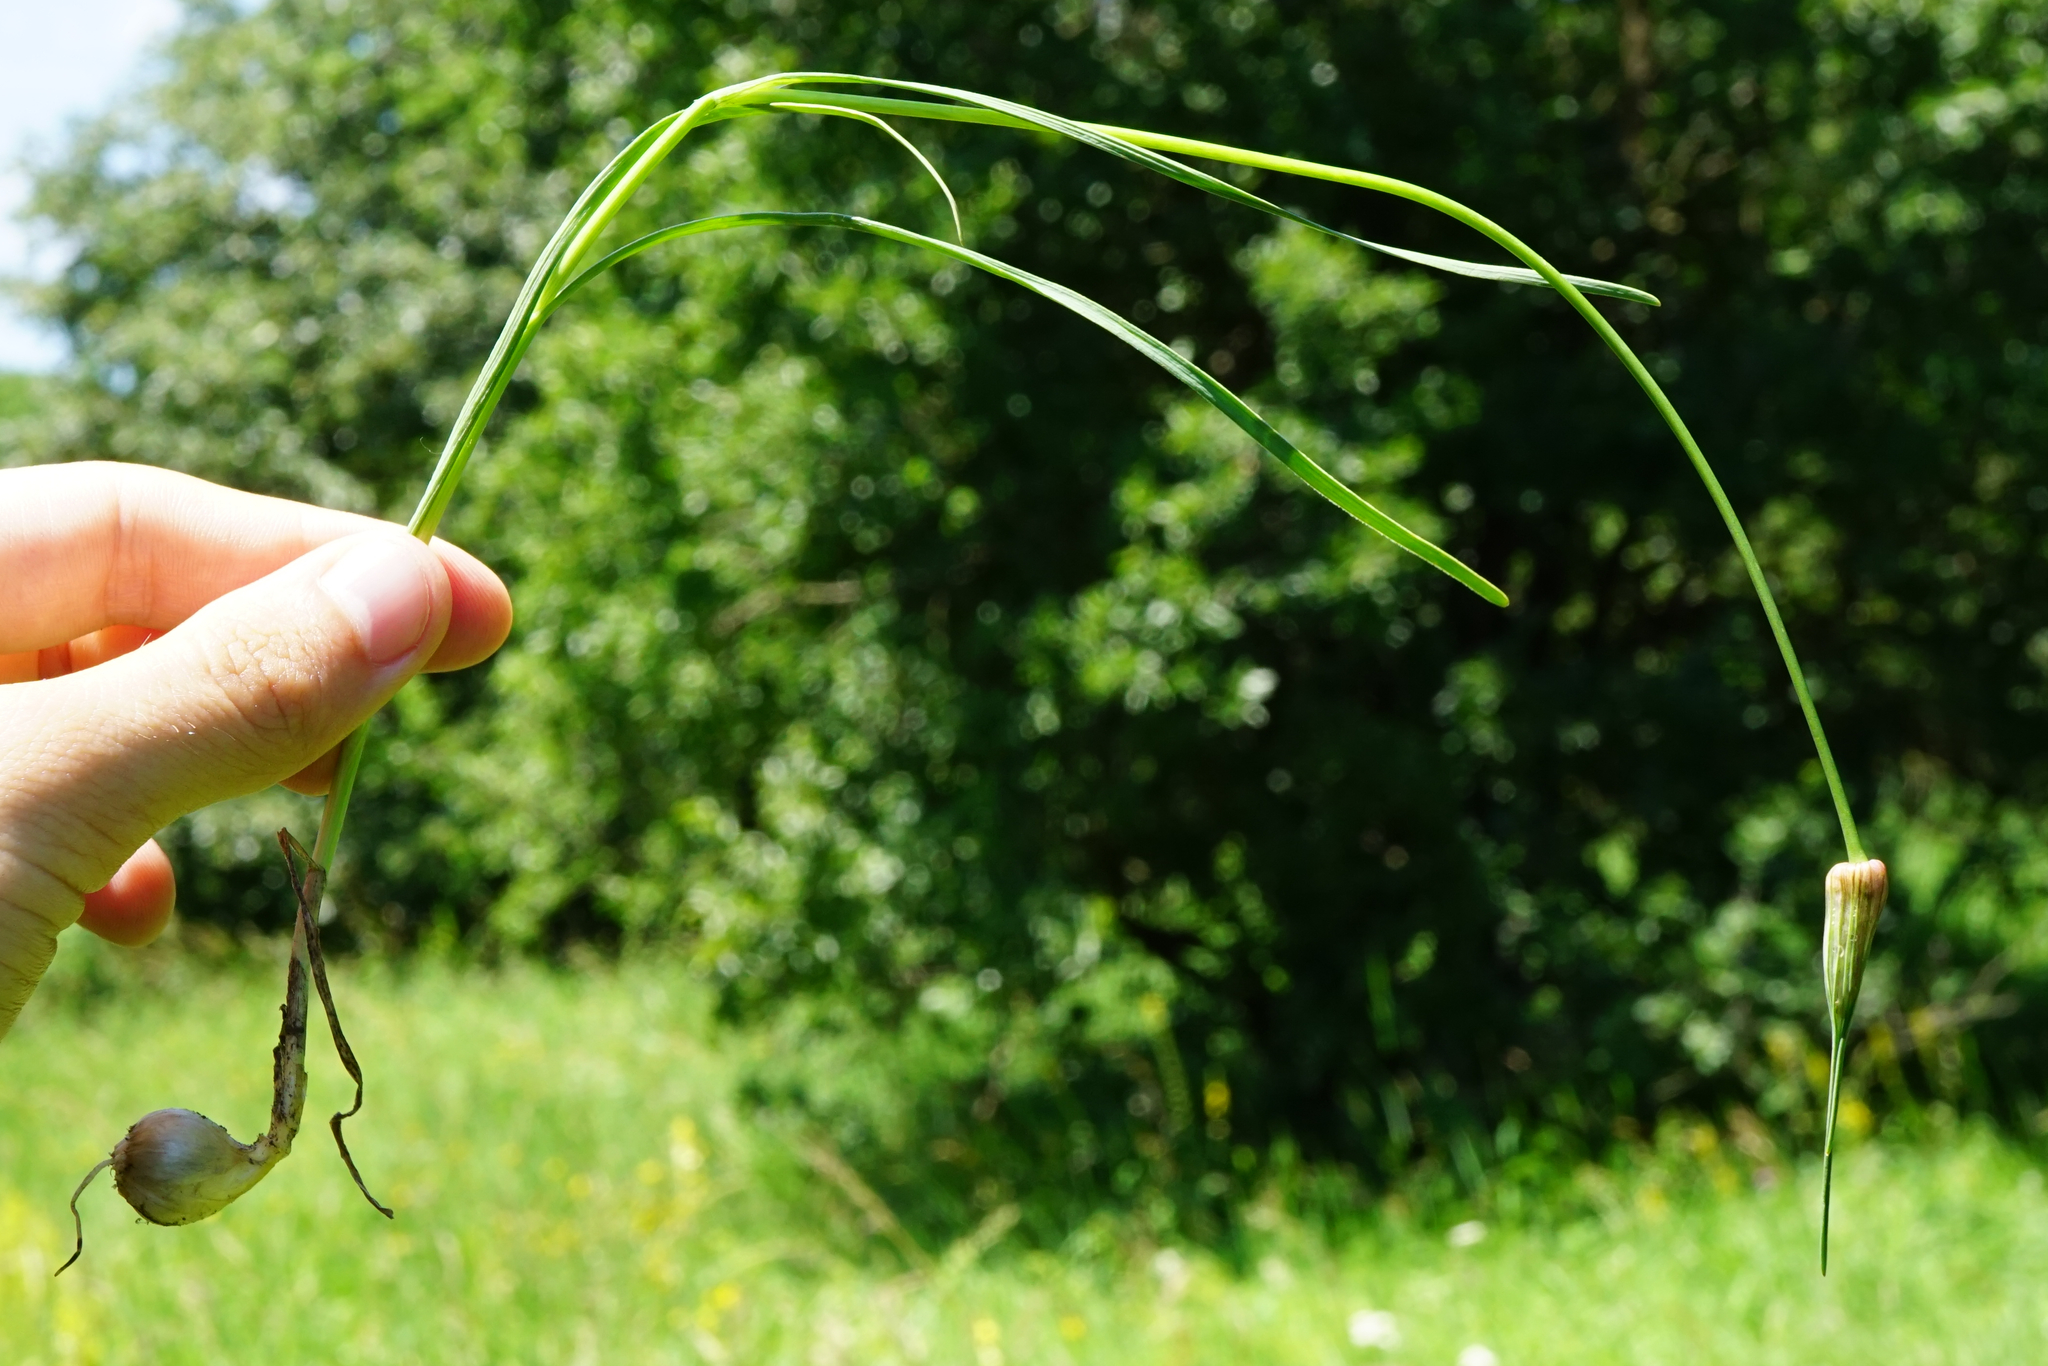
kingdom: Plantae
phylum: Tracheophyta
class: Liliopsida
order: Asparagales
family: Amaryllidaceae
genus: Allium
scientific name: Allium carinatum
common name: Keeled garlic
